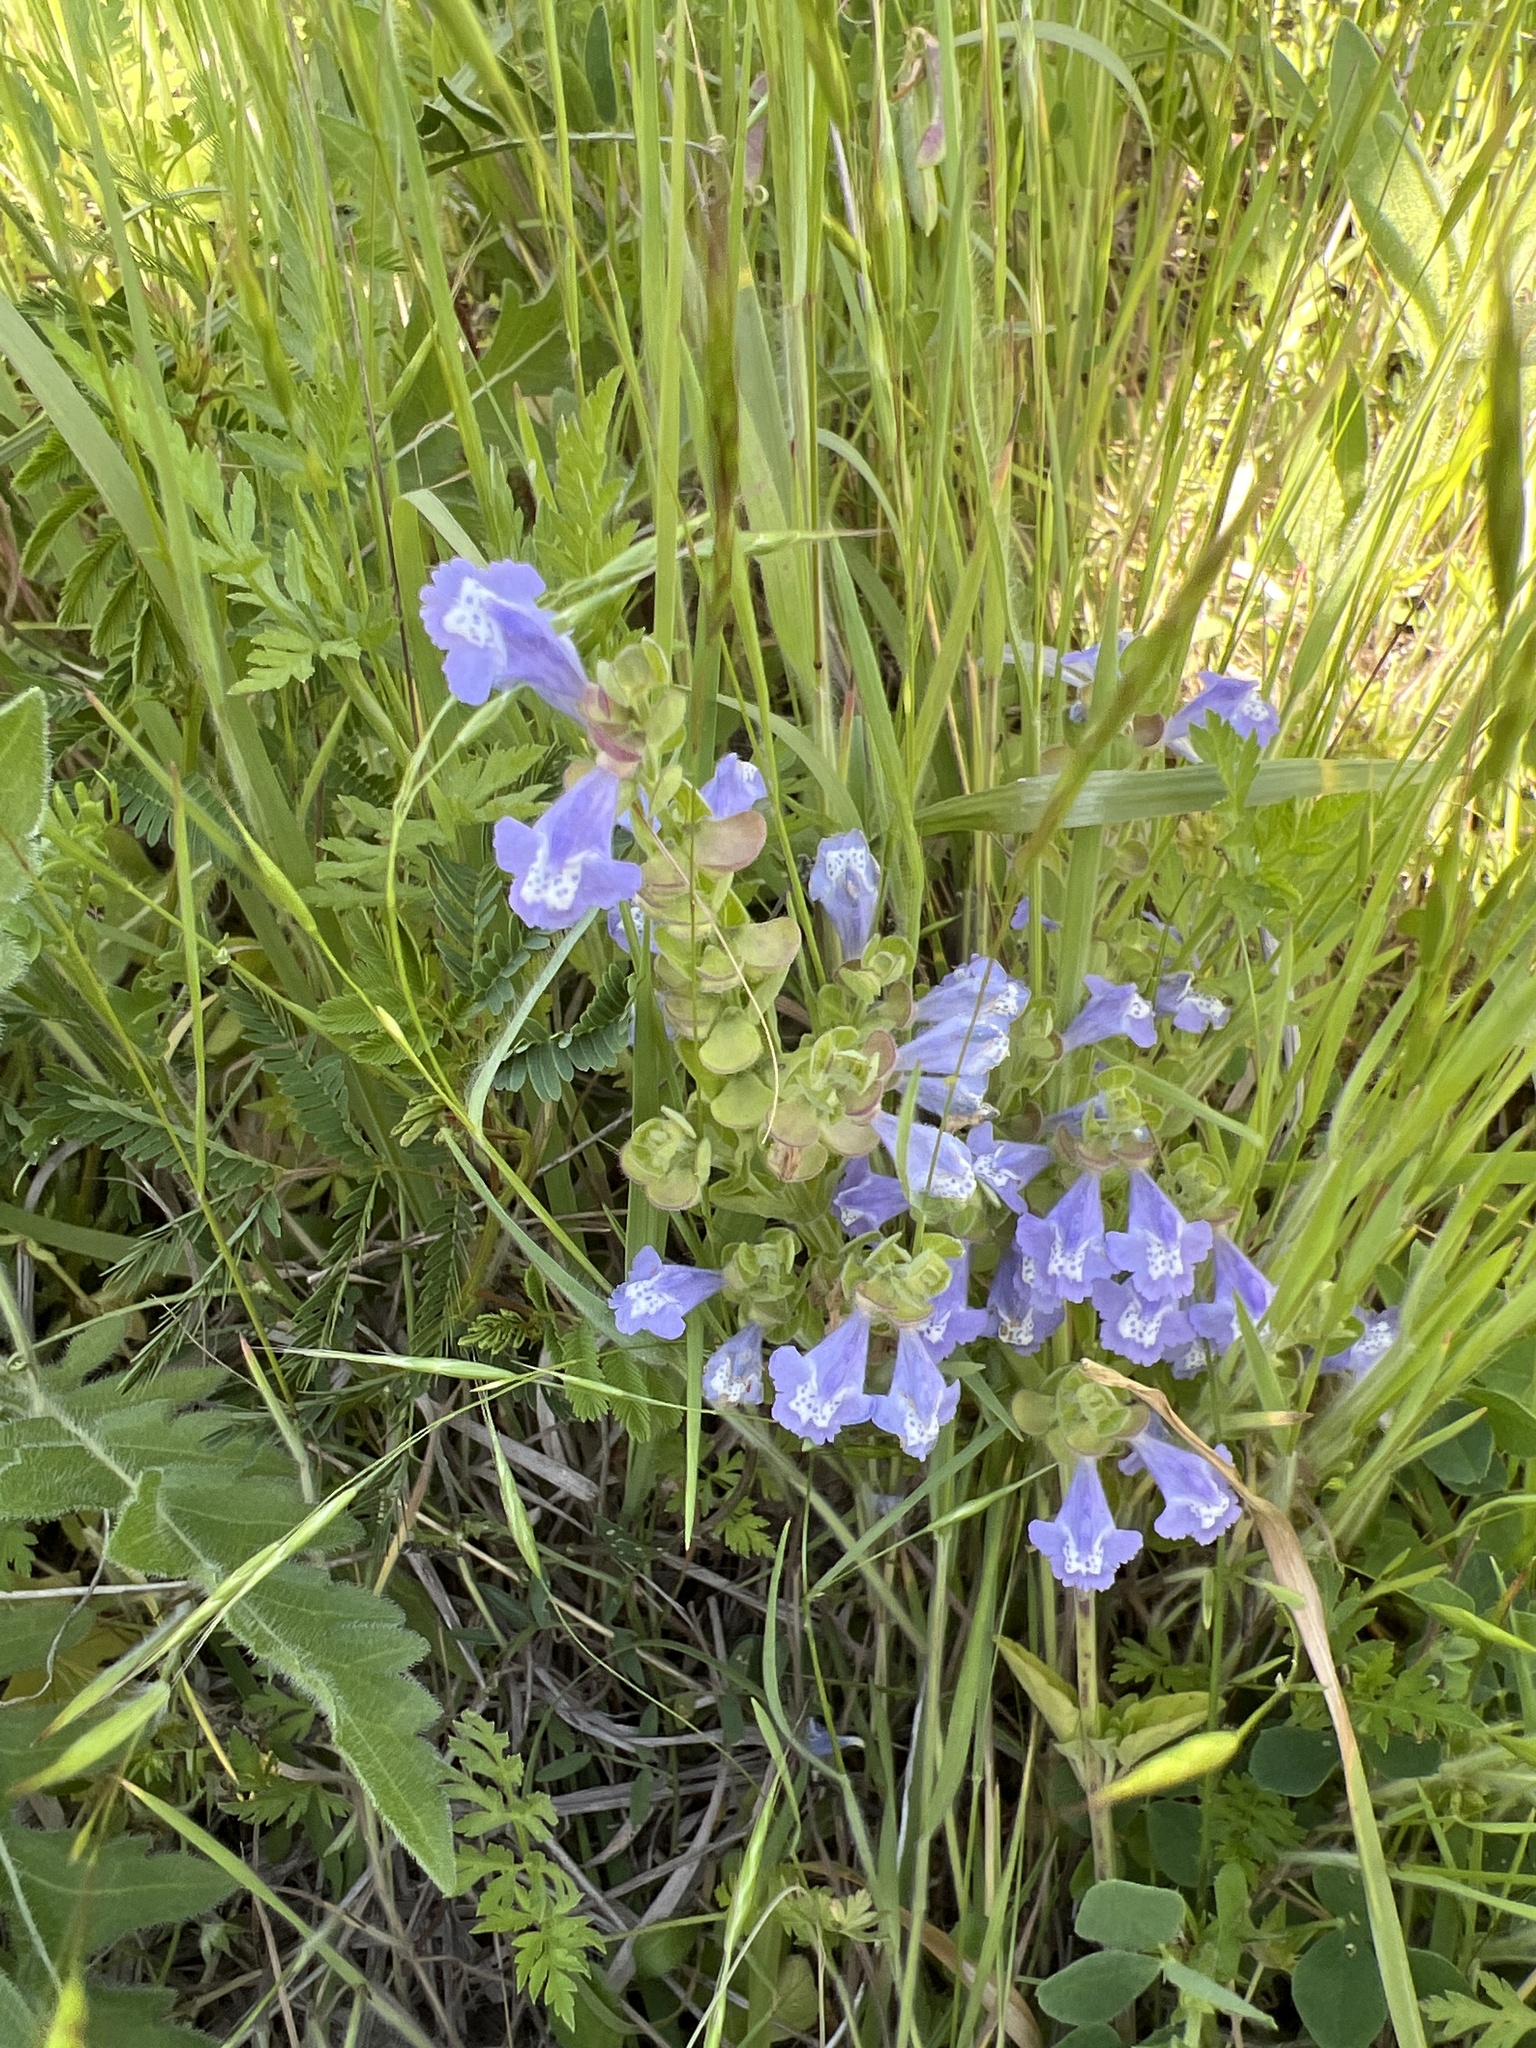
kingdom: Plantae
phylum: Tracheophyta
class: Magnoliopsida
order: Lamiales
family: Lamiaceae
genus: Scutellaria
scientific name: Scutellaria drummondii
